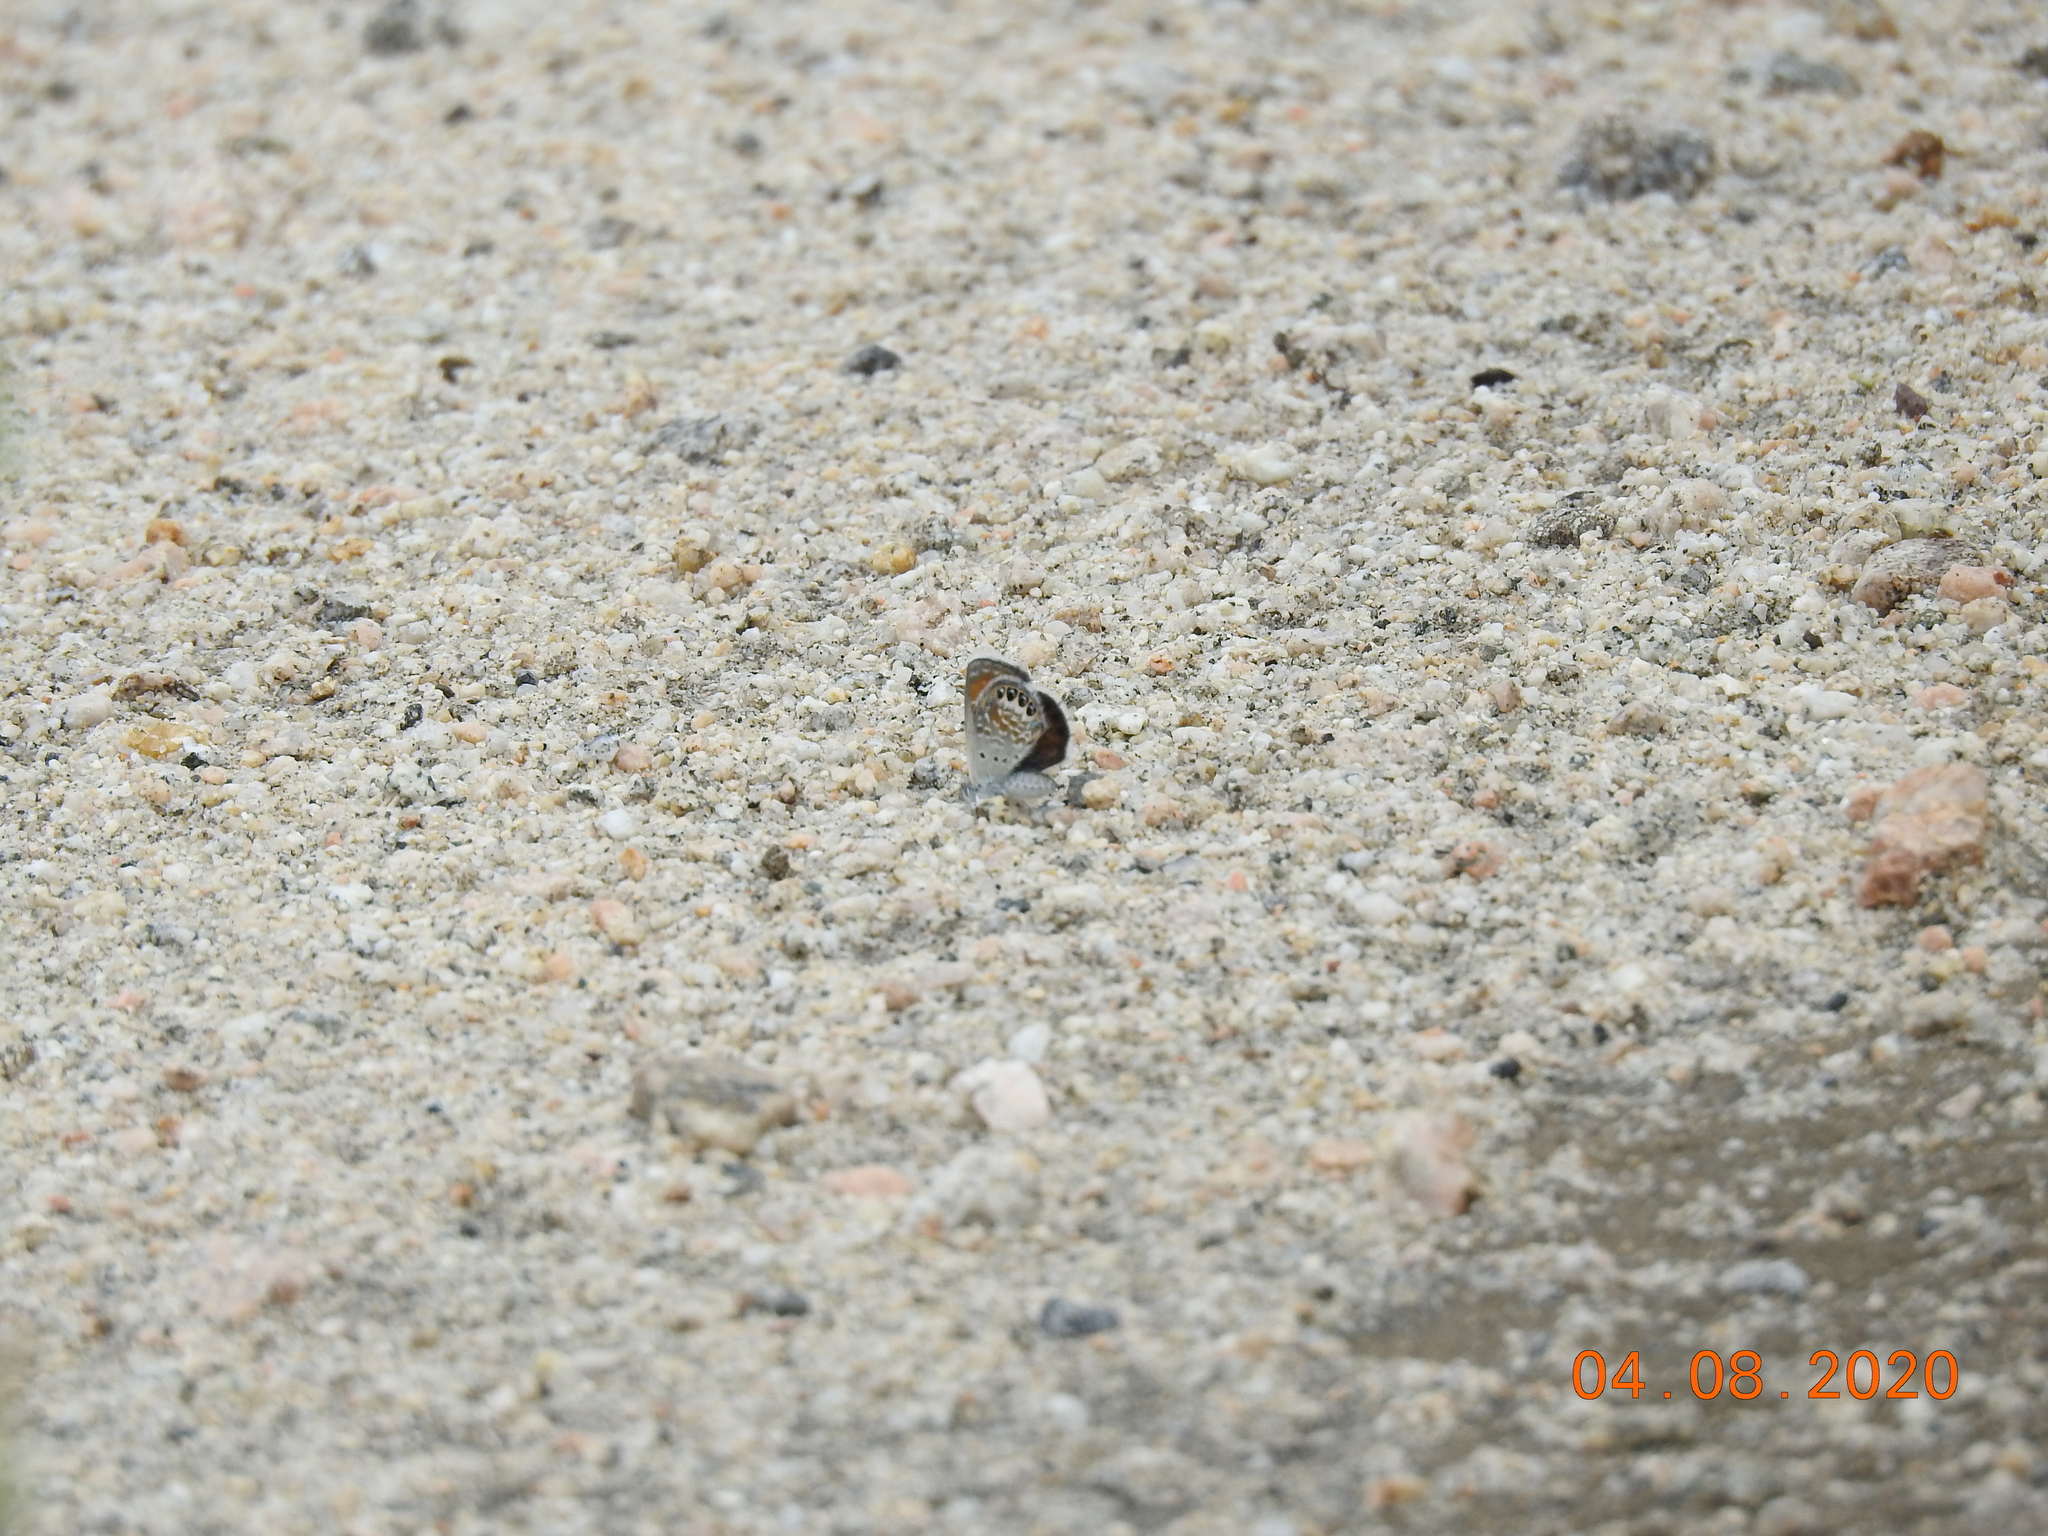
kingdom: Animalia
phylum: Arthropoda
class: Insecta
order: Lepidoptera
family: Lycaenidae
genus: Brephidium
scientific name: Brephidium exilis
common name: Pygmy blue
